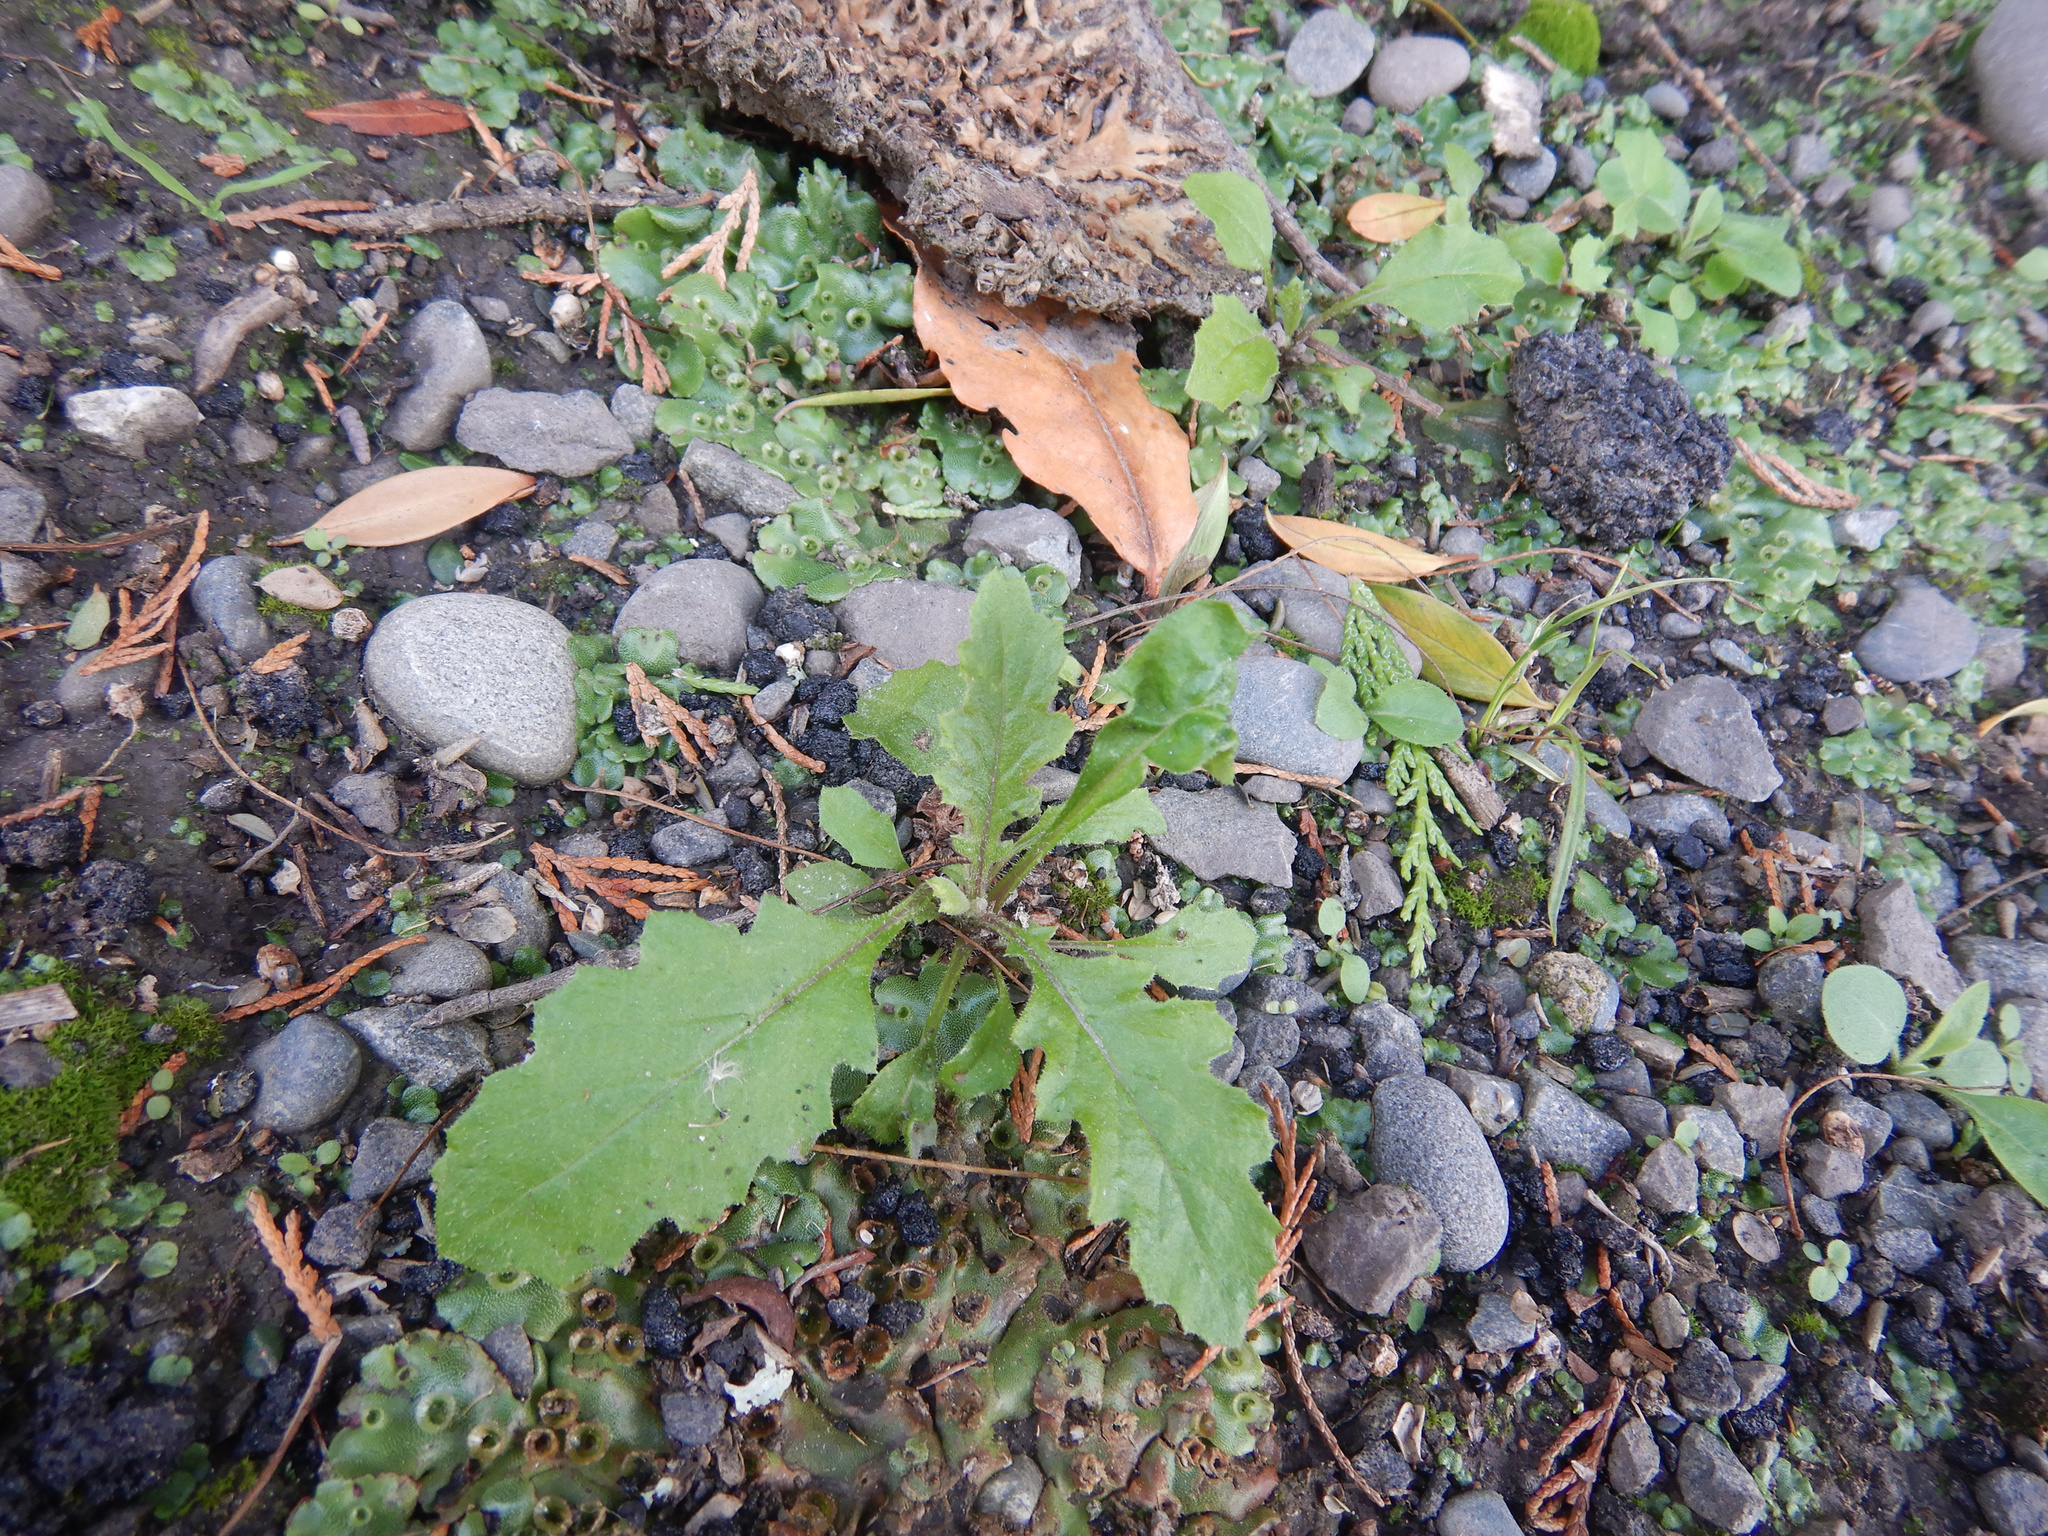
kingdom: Plantae
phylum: Tracheophyta
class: Magnoliopsida
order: Asterales
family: Asteraceae
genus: Senecio
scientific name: Senecio glomeratus
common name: Cutleaf burnweed
